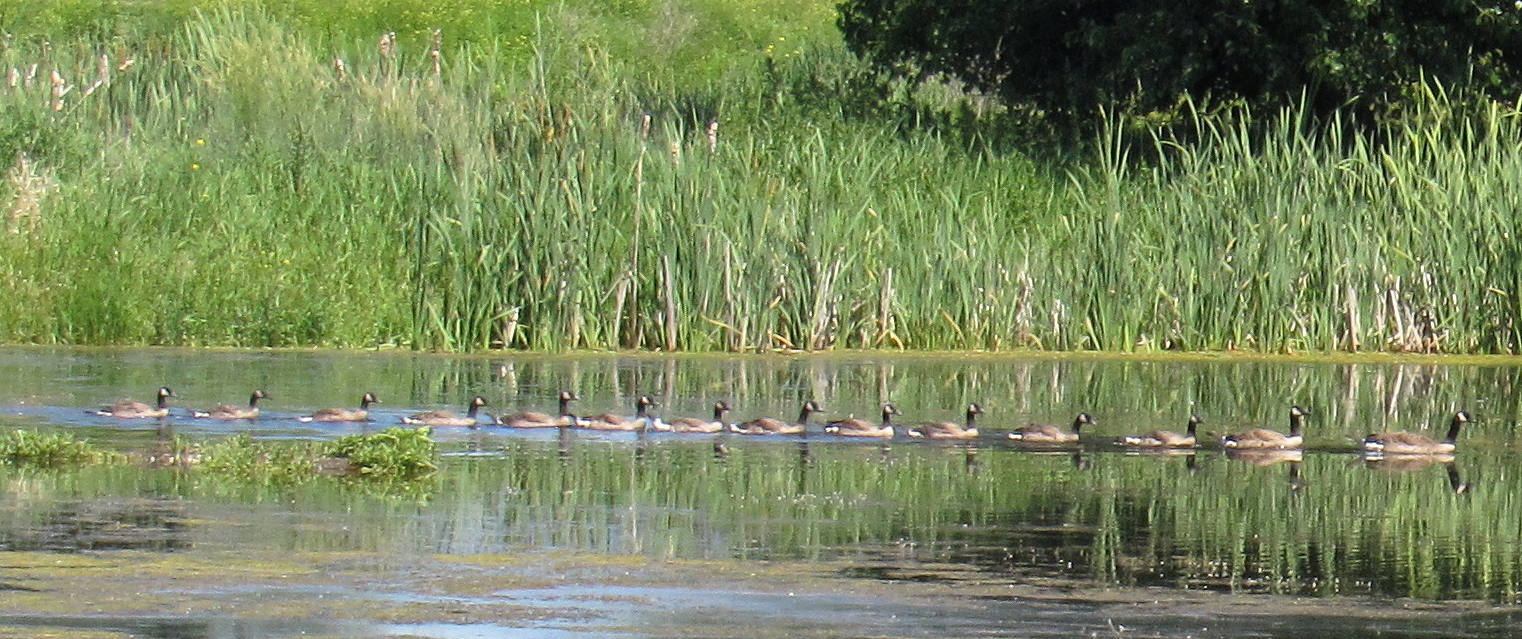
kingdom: Animalia
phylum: Chordata
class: Aves
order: Anseriformes
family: Anatidae
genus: Branta
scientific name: Branta canadensis
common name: Canada goose
